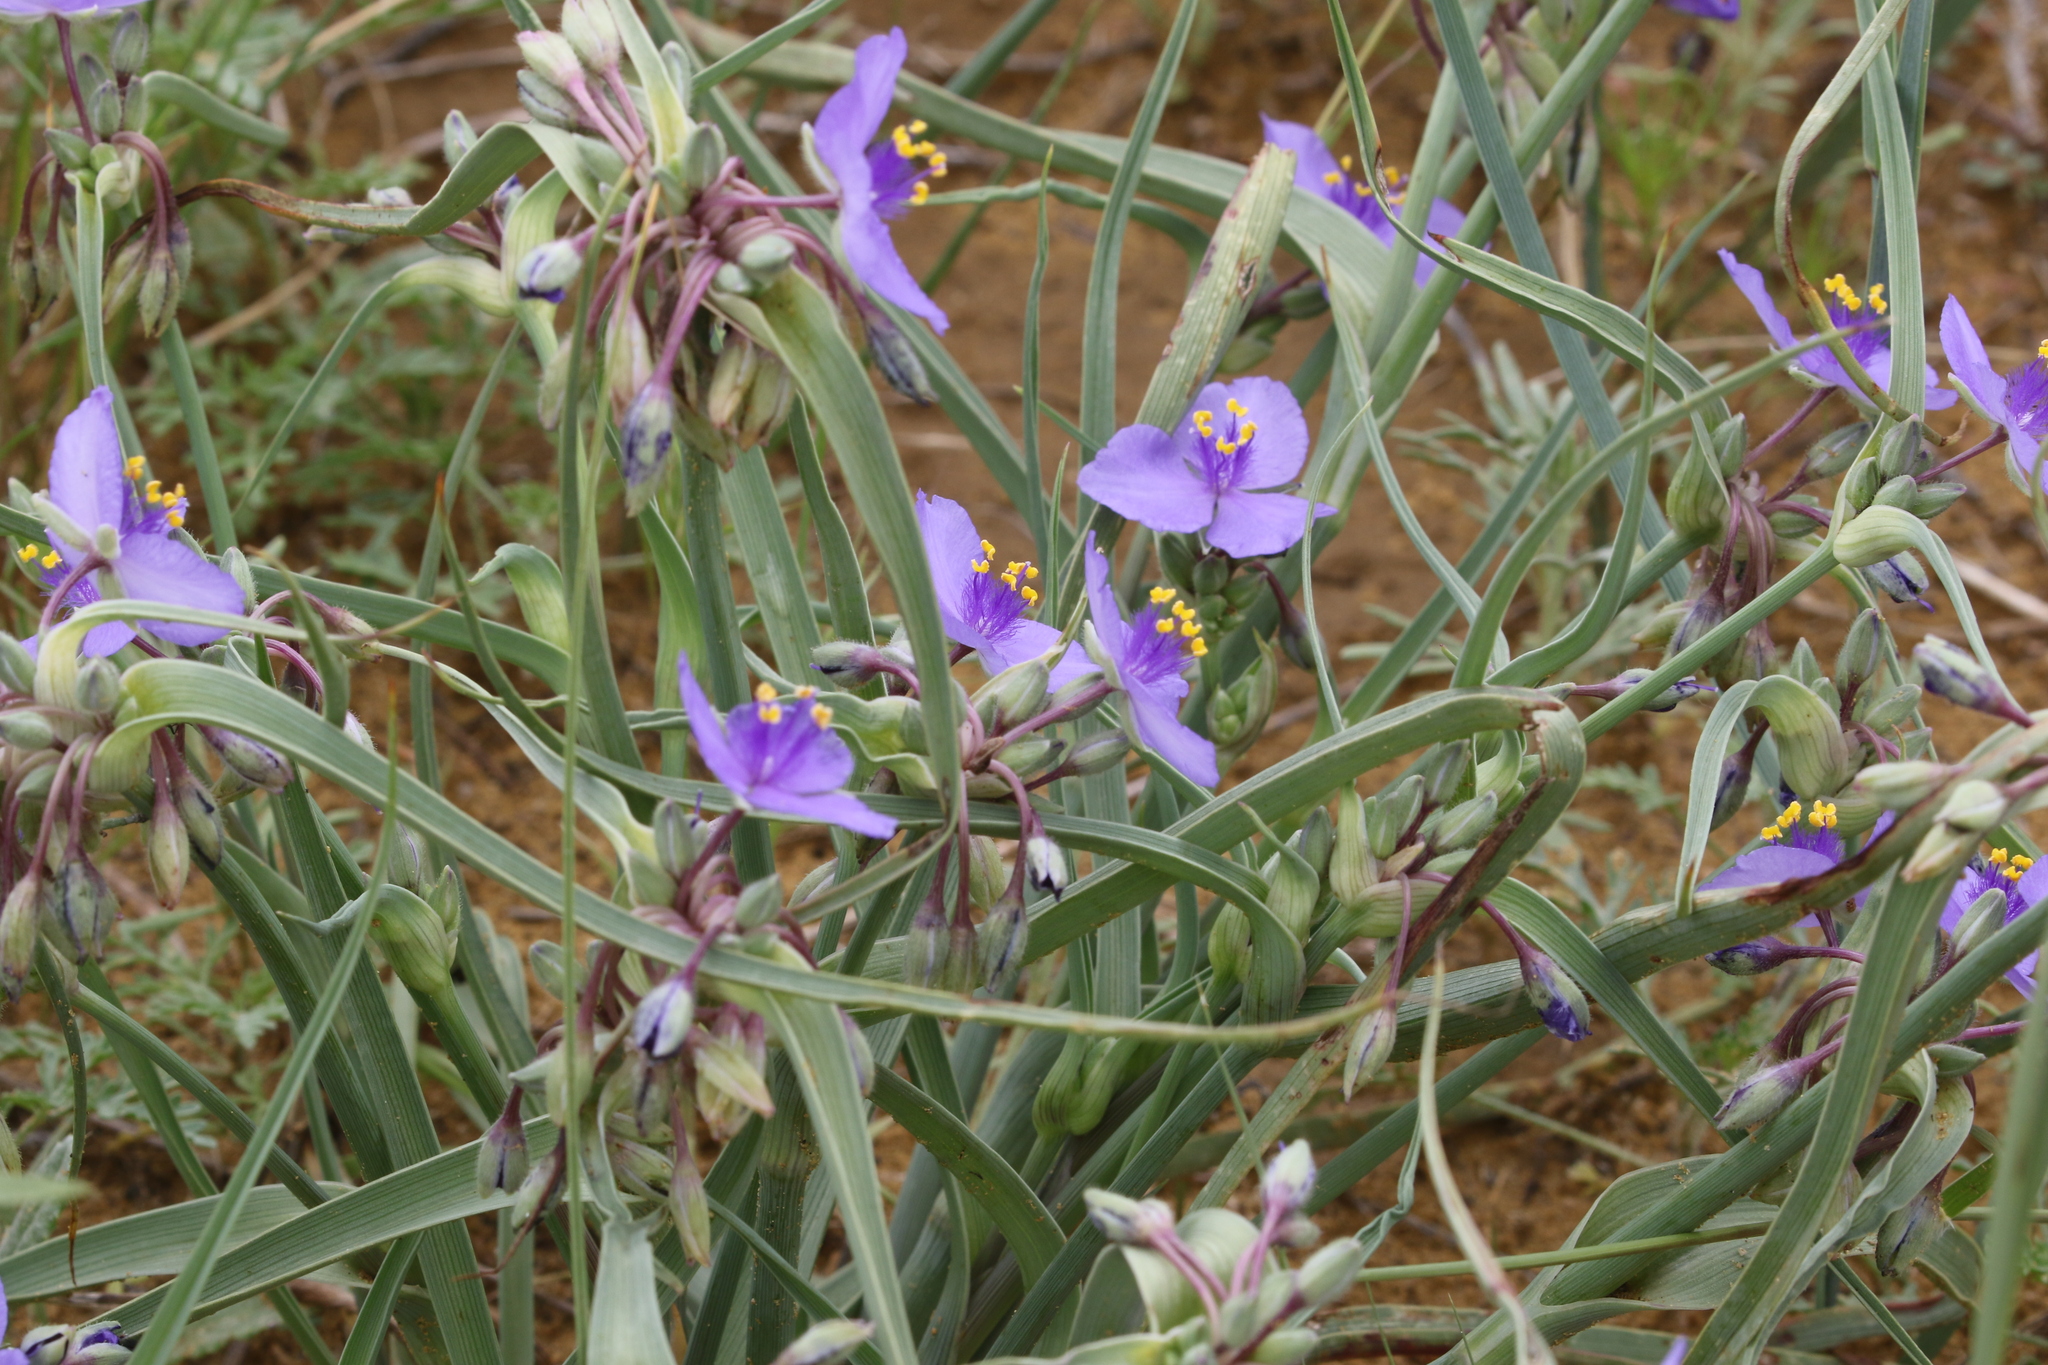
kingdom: Plantae
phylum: Tracheophyta
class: Liliopsida
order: Commelinales
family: Commelinaceae
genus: Tradescantia
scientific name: Tradescantia occidentalis
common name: Prairie spiderwort
